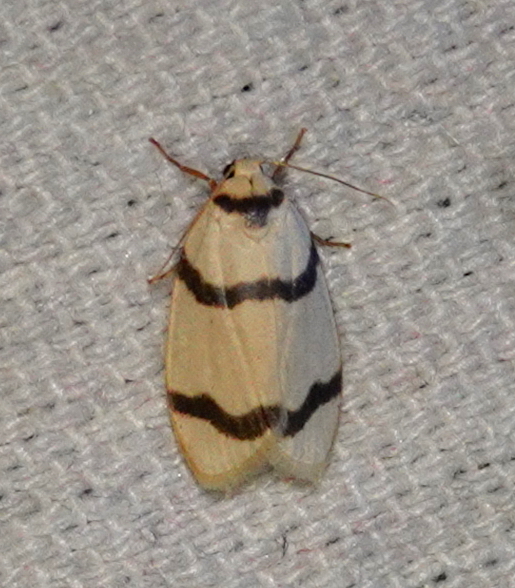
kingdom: Animalia
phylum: Arthropoda
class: Insecta
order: Lepidoptera
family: Erebidae
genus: Padenia
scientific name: Padenia transversa
